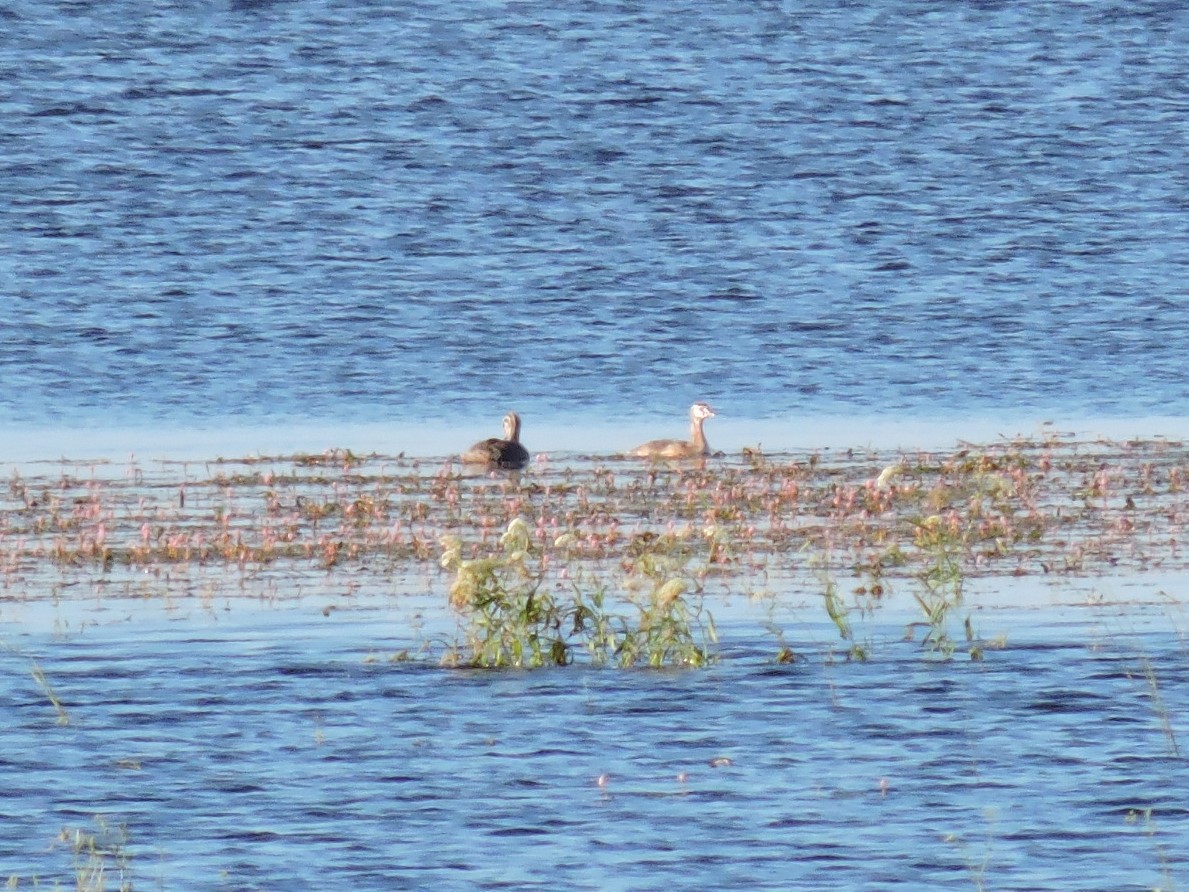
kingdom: Animalia
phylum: Chordata
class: Aves
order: Podicipediformes
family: Podicipedidae
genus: Podiceps
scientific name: Podiceps cristatus
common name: Great crested grebe
